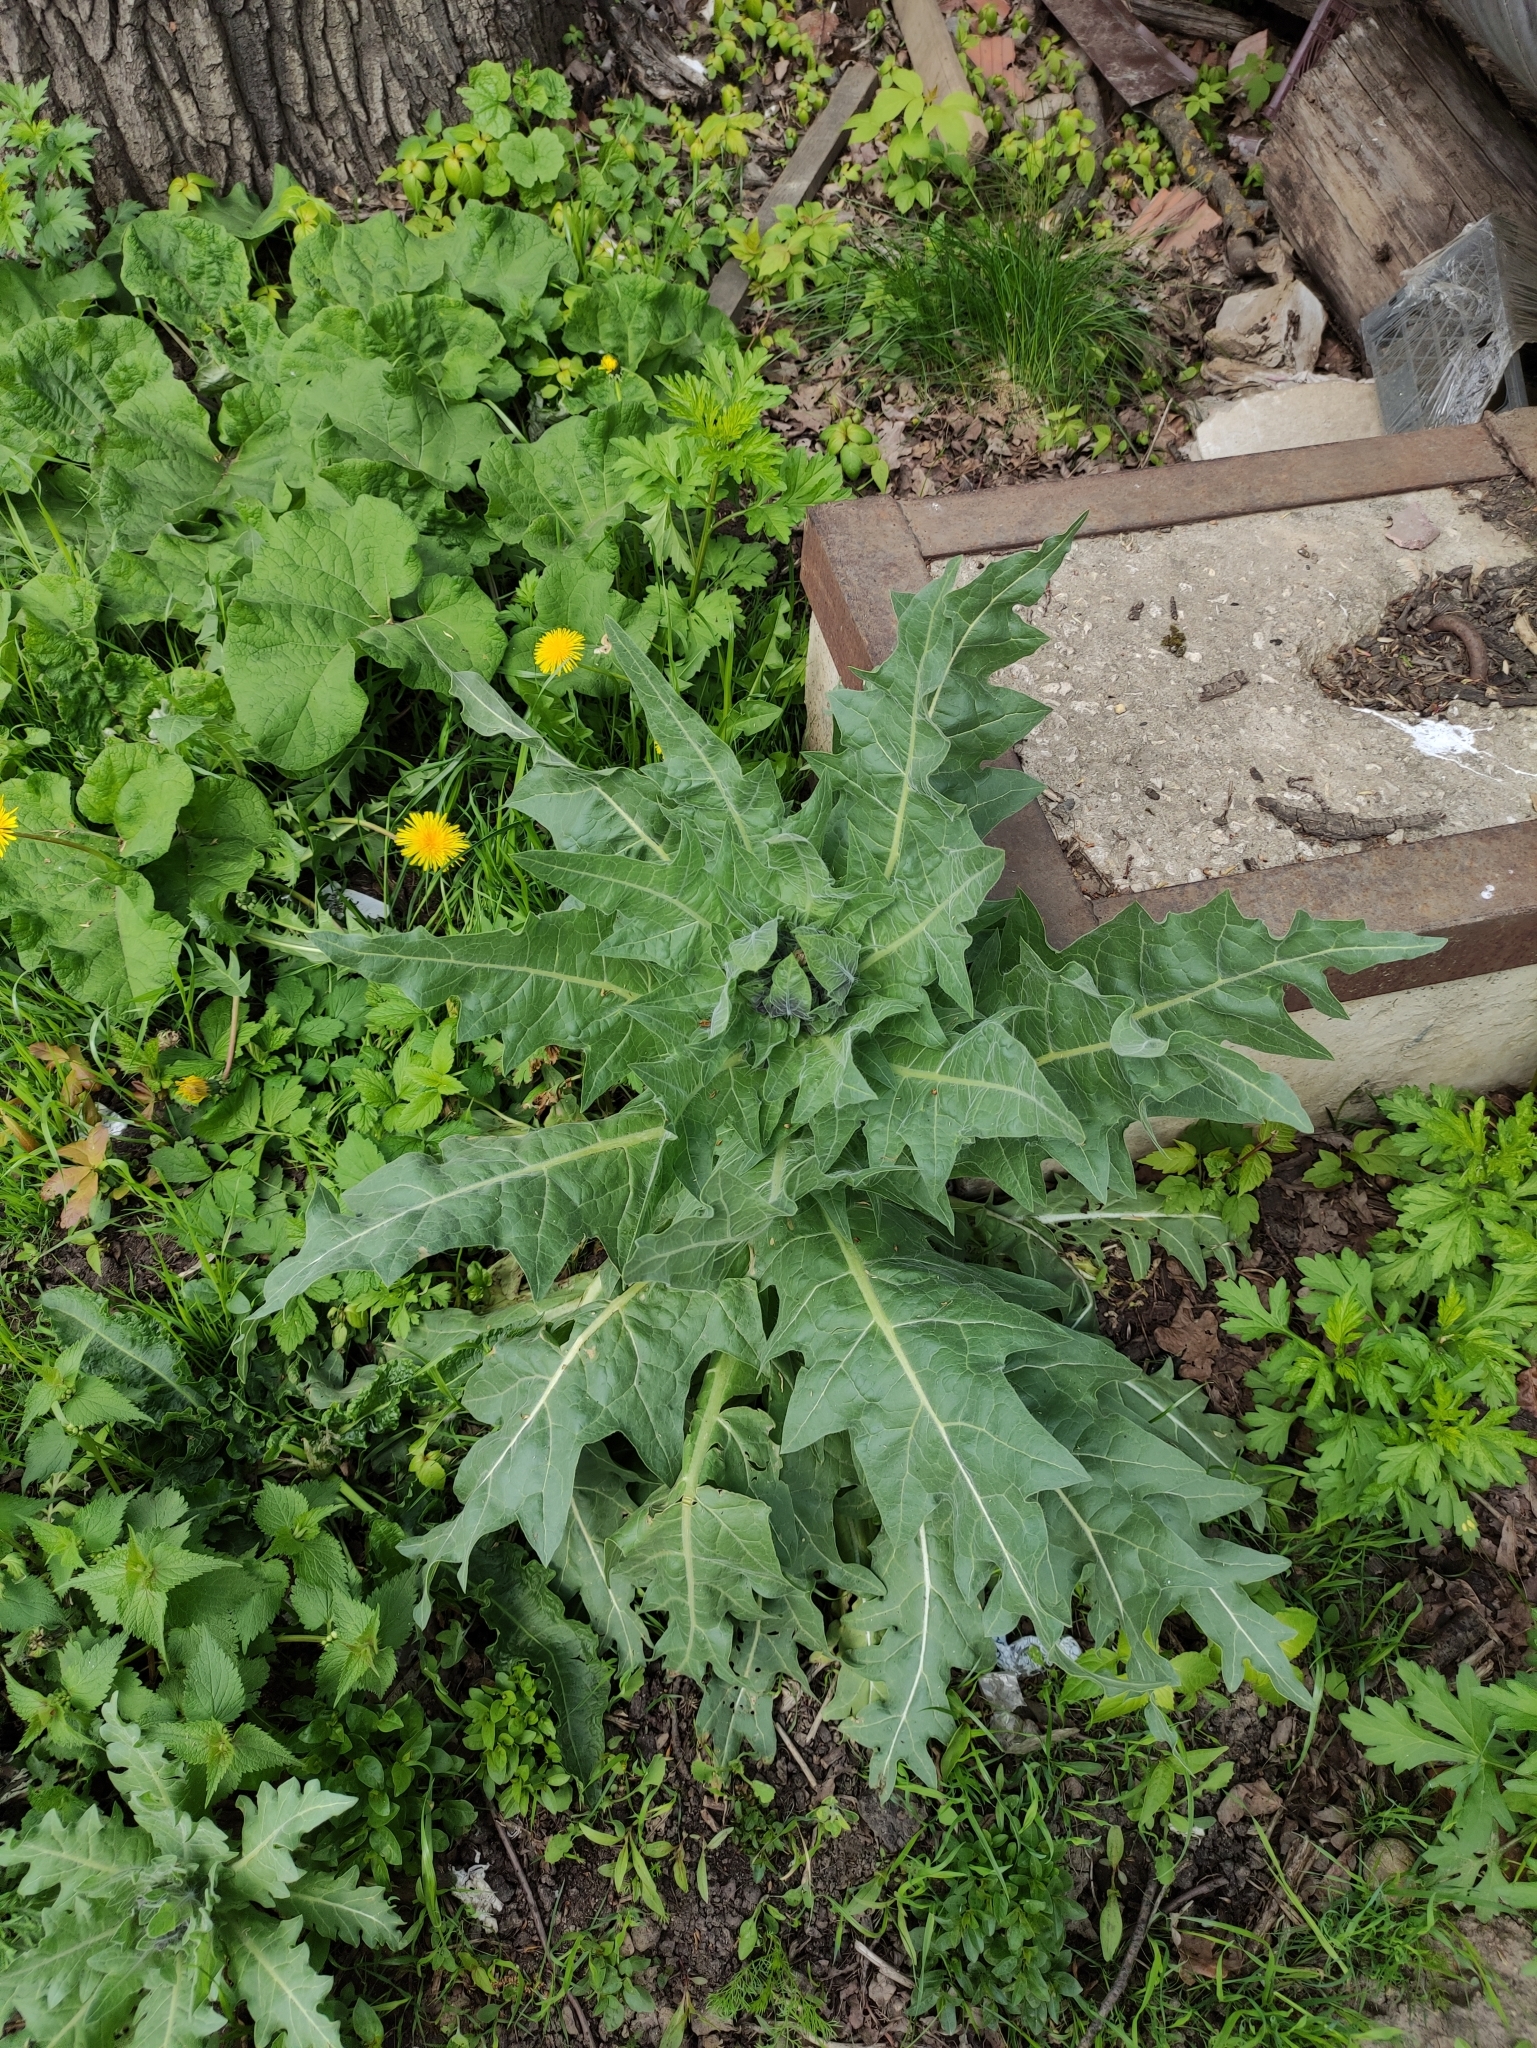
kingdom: Plantae
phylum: Tracheophyta
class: Magnoliopsida
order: Solanales
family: Solanaceae
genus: Hyoscyamus
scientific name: Hyoscyamus niger
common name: Henbane
